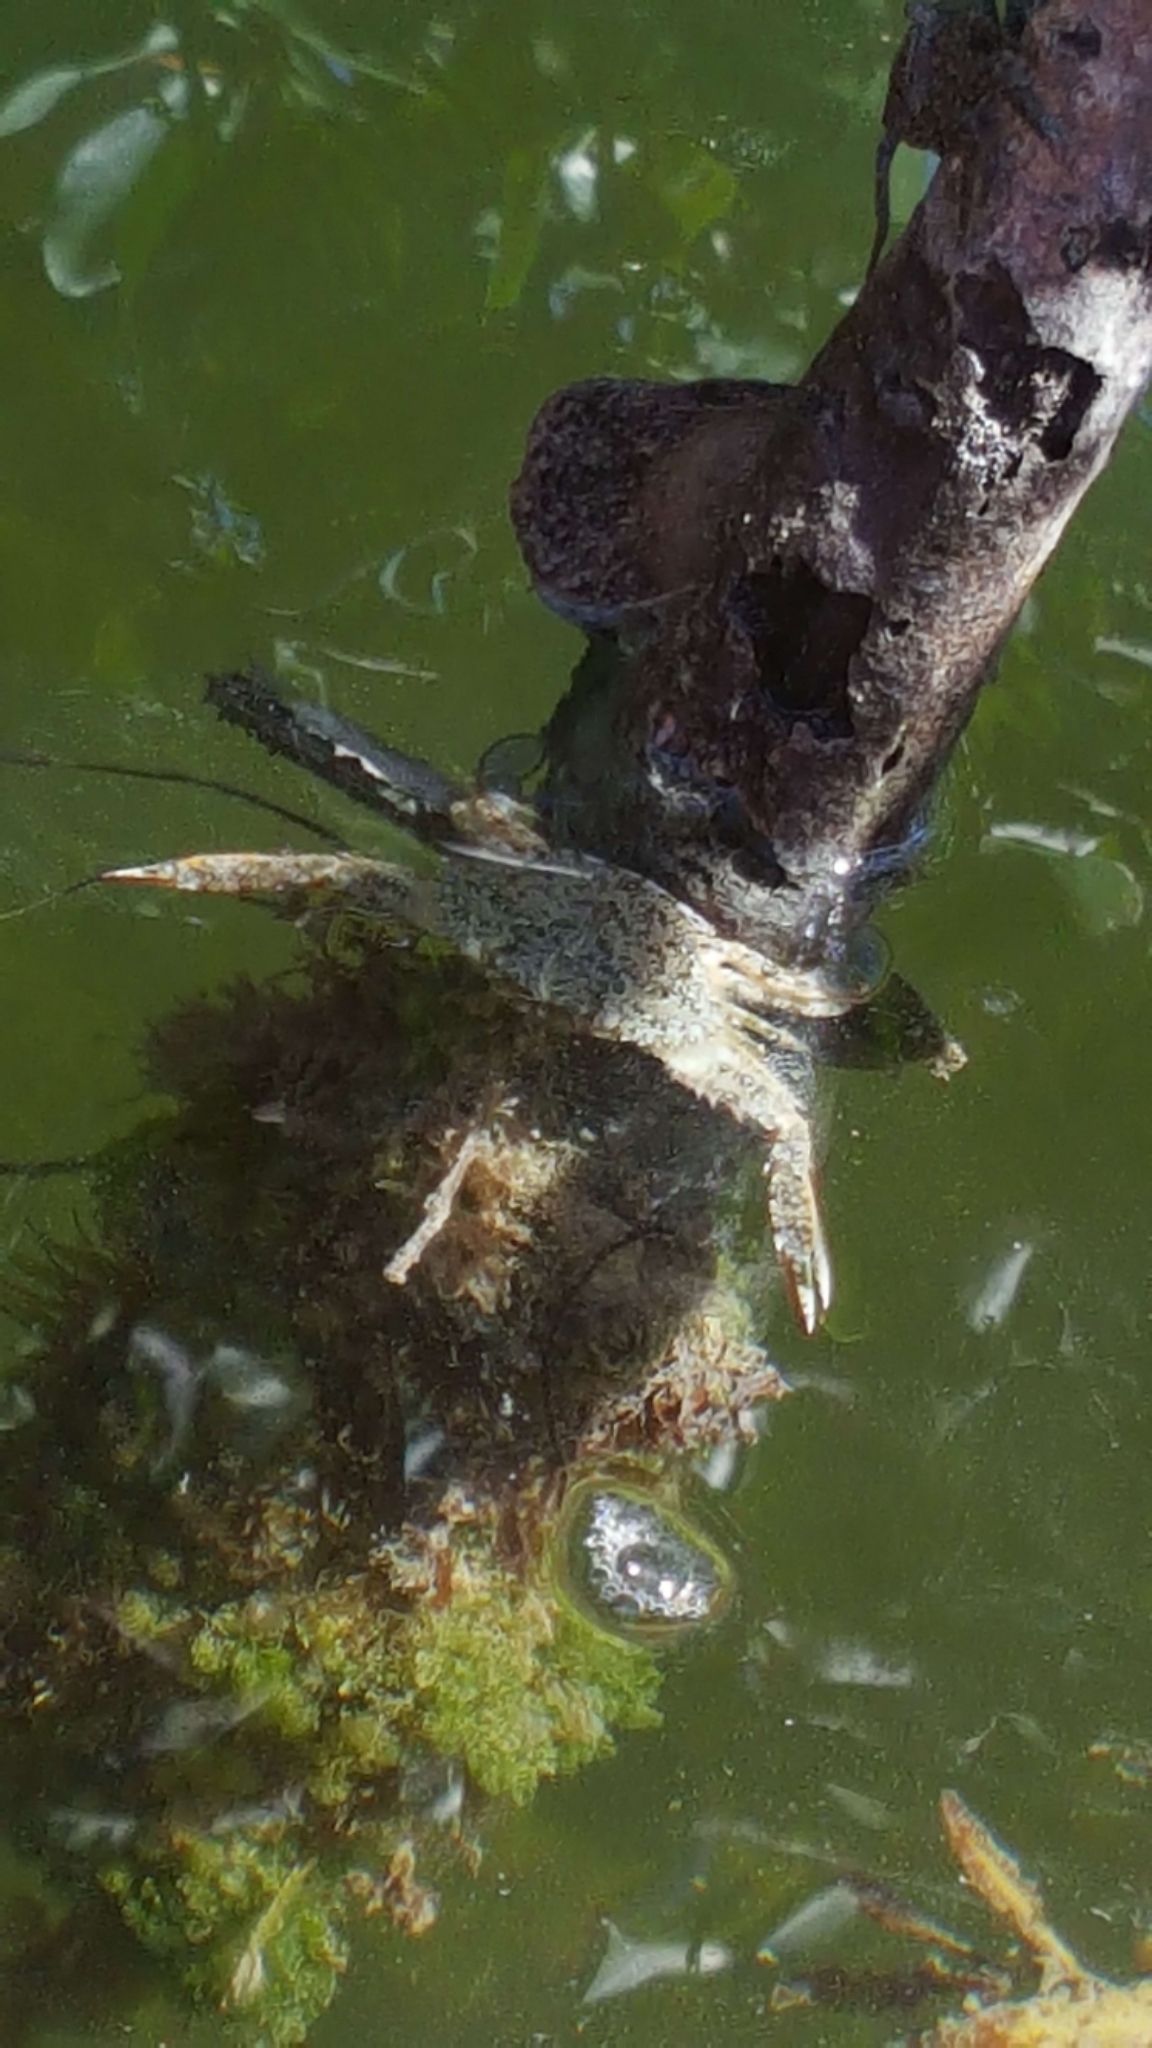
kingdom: Animalia
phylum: Arthropoda
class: Malacostraca
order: Decapoda
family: Portunidae
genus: Achelous
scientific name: Achelous depressifrons
